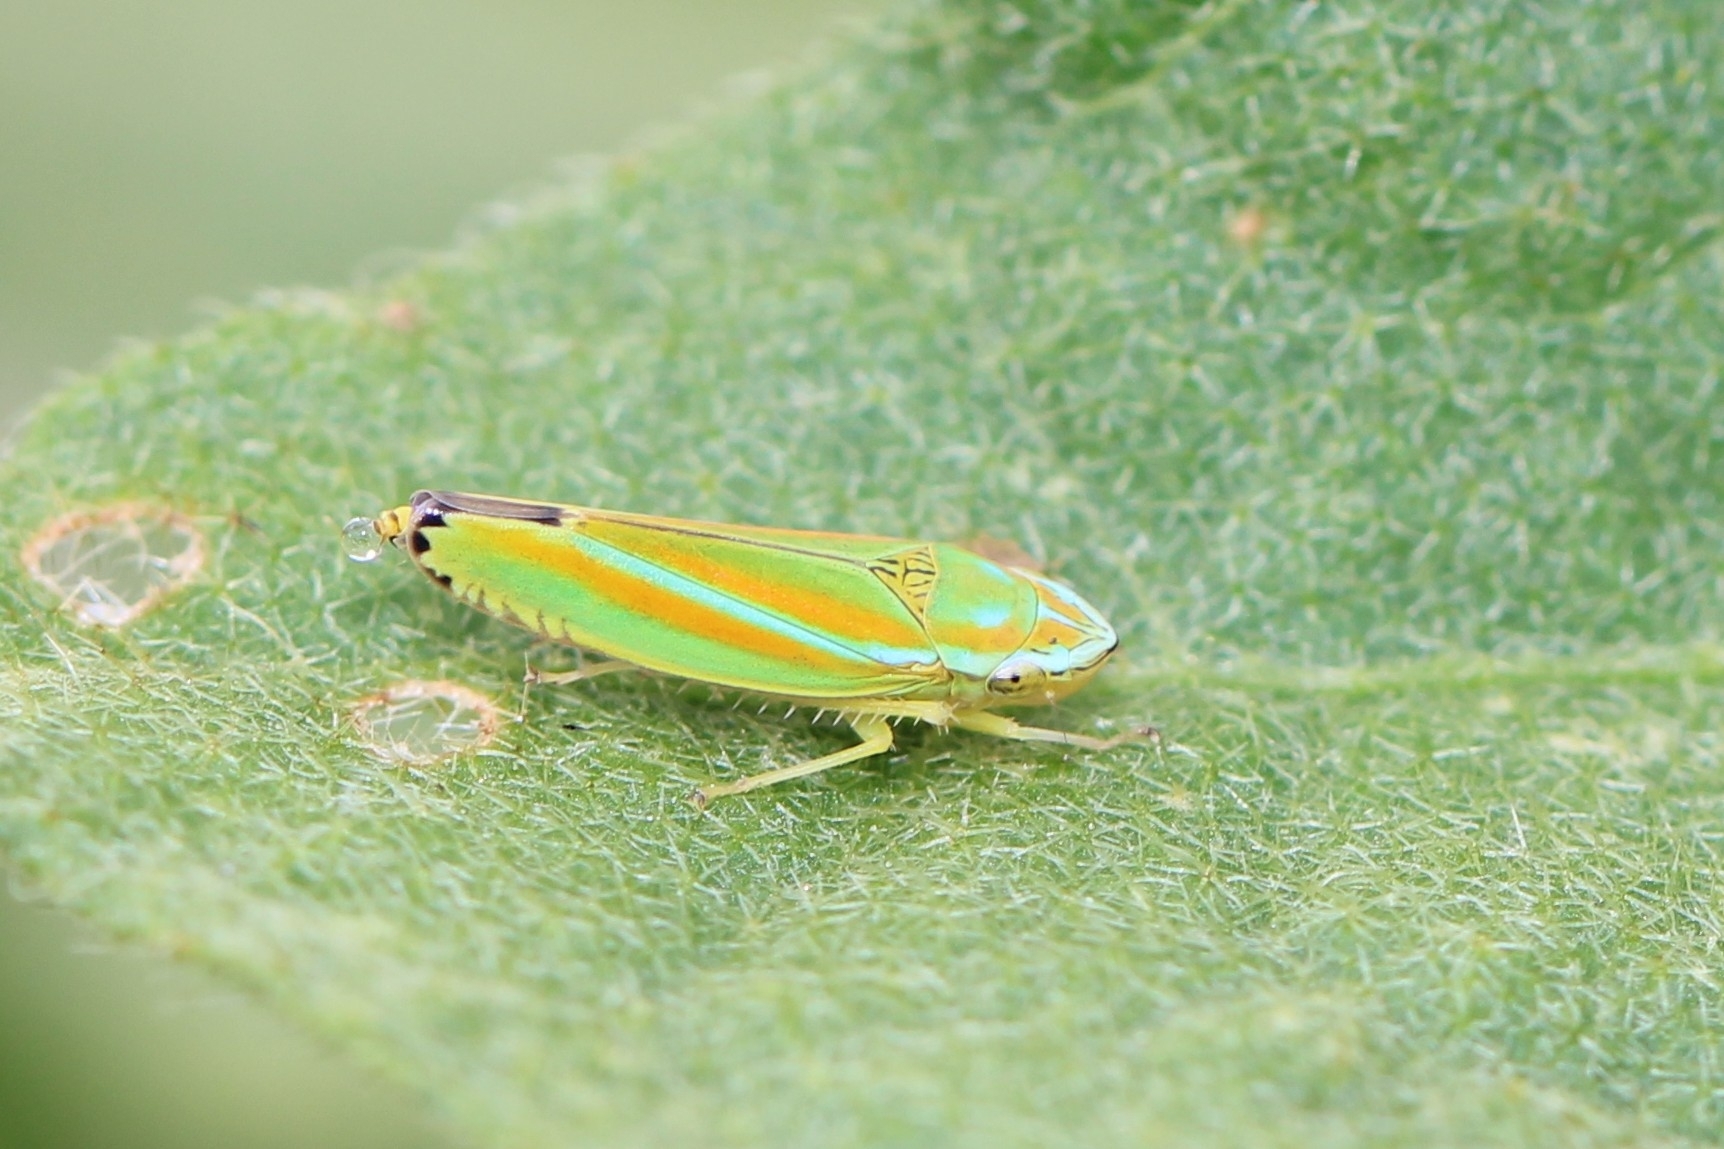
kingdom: Animalia
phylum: Arthropoda
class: Insecta
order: Hemiptera
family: Cicadellidae
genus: Graphocephala
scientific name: Graphocephala versuta
